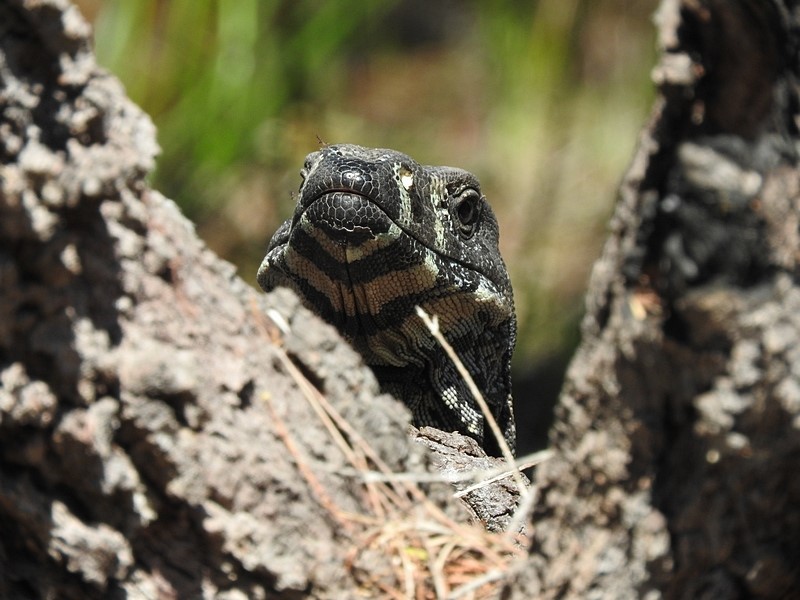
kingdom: Animalia
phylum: Chordata
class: Squamata
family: Varanidae
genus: Varanus
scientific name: Varanus varius
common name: Lace monitor
